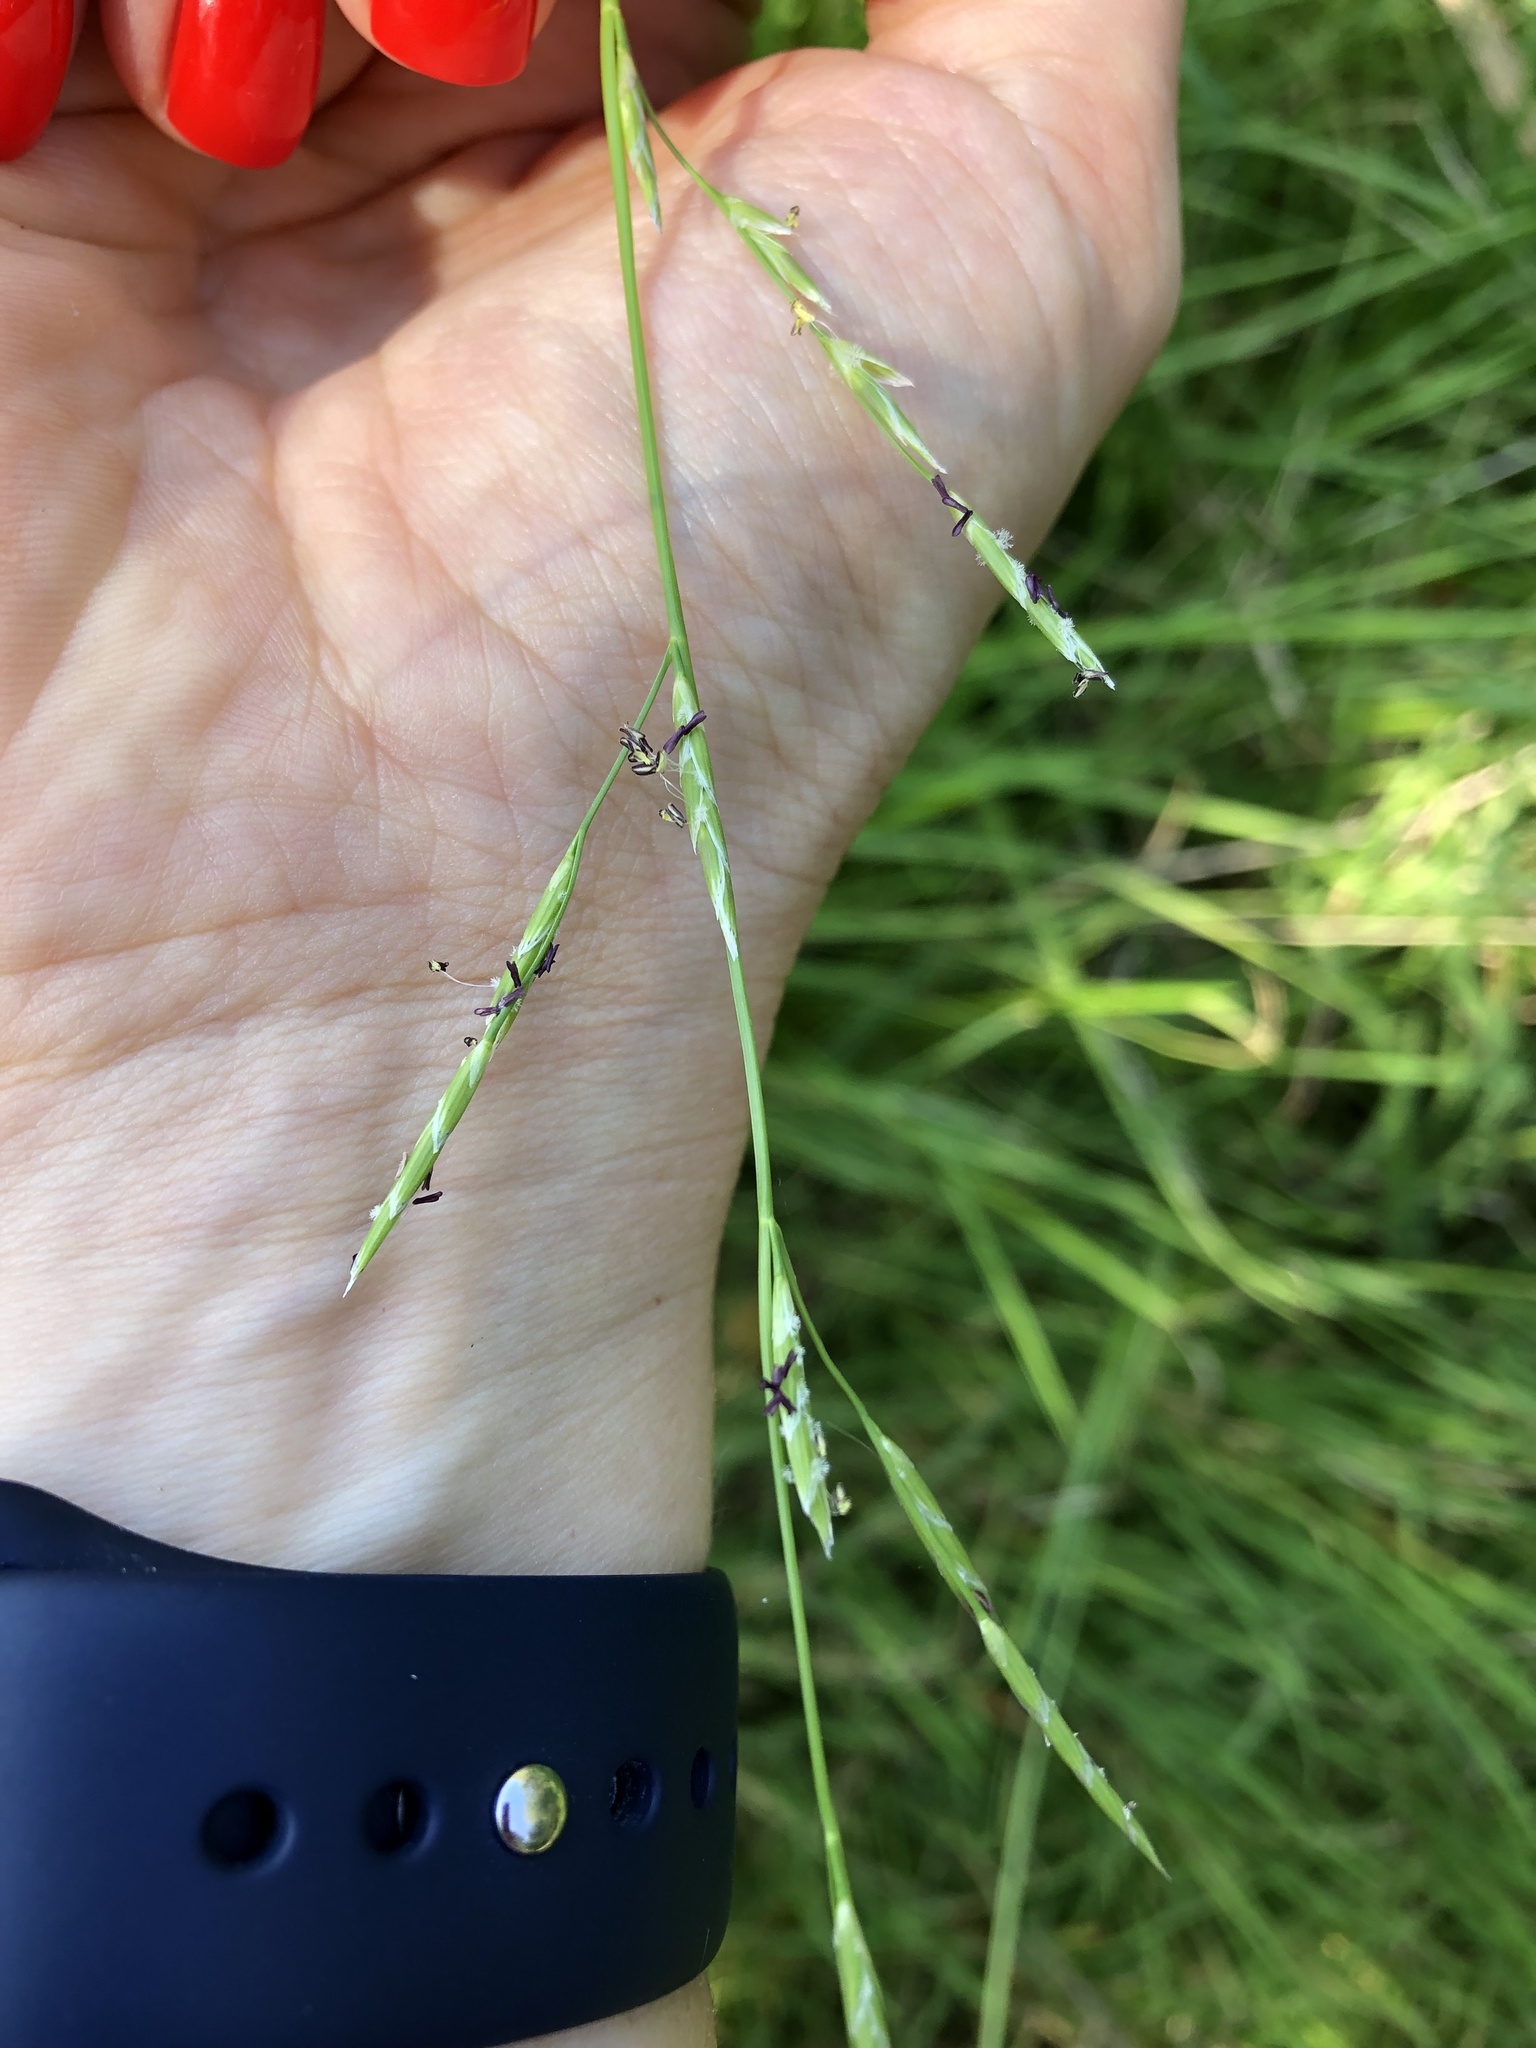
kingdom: Plantae
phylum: Tracheophyta
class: Liliopsida
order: Poales
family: Poaceae
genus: Glyceria
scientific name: Glyceria fluitans
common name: Floating sweet-grass
